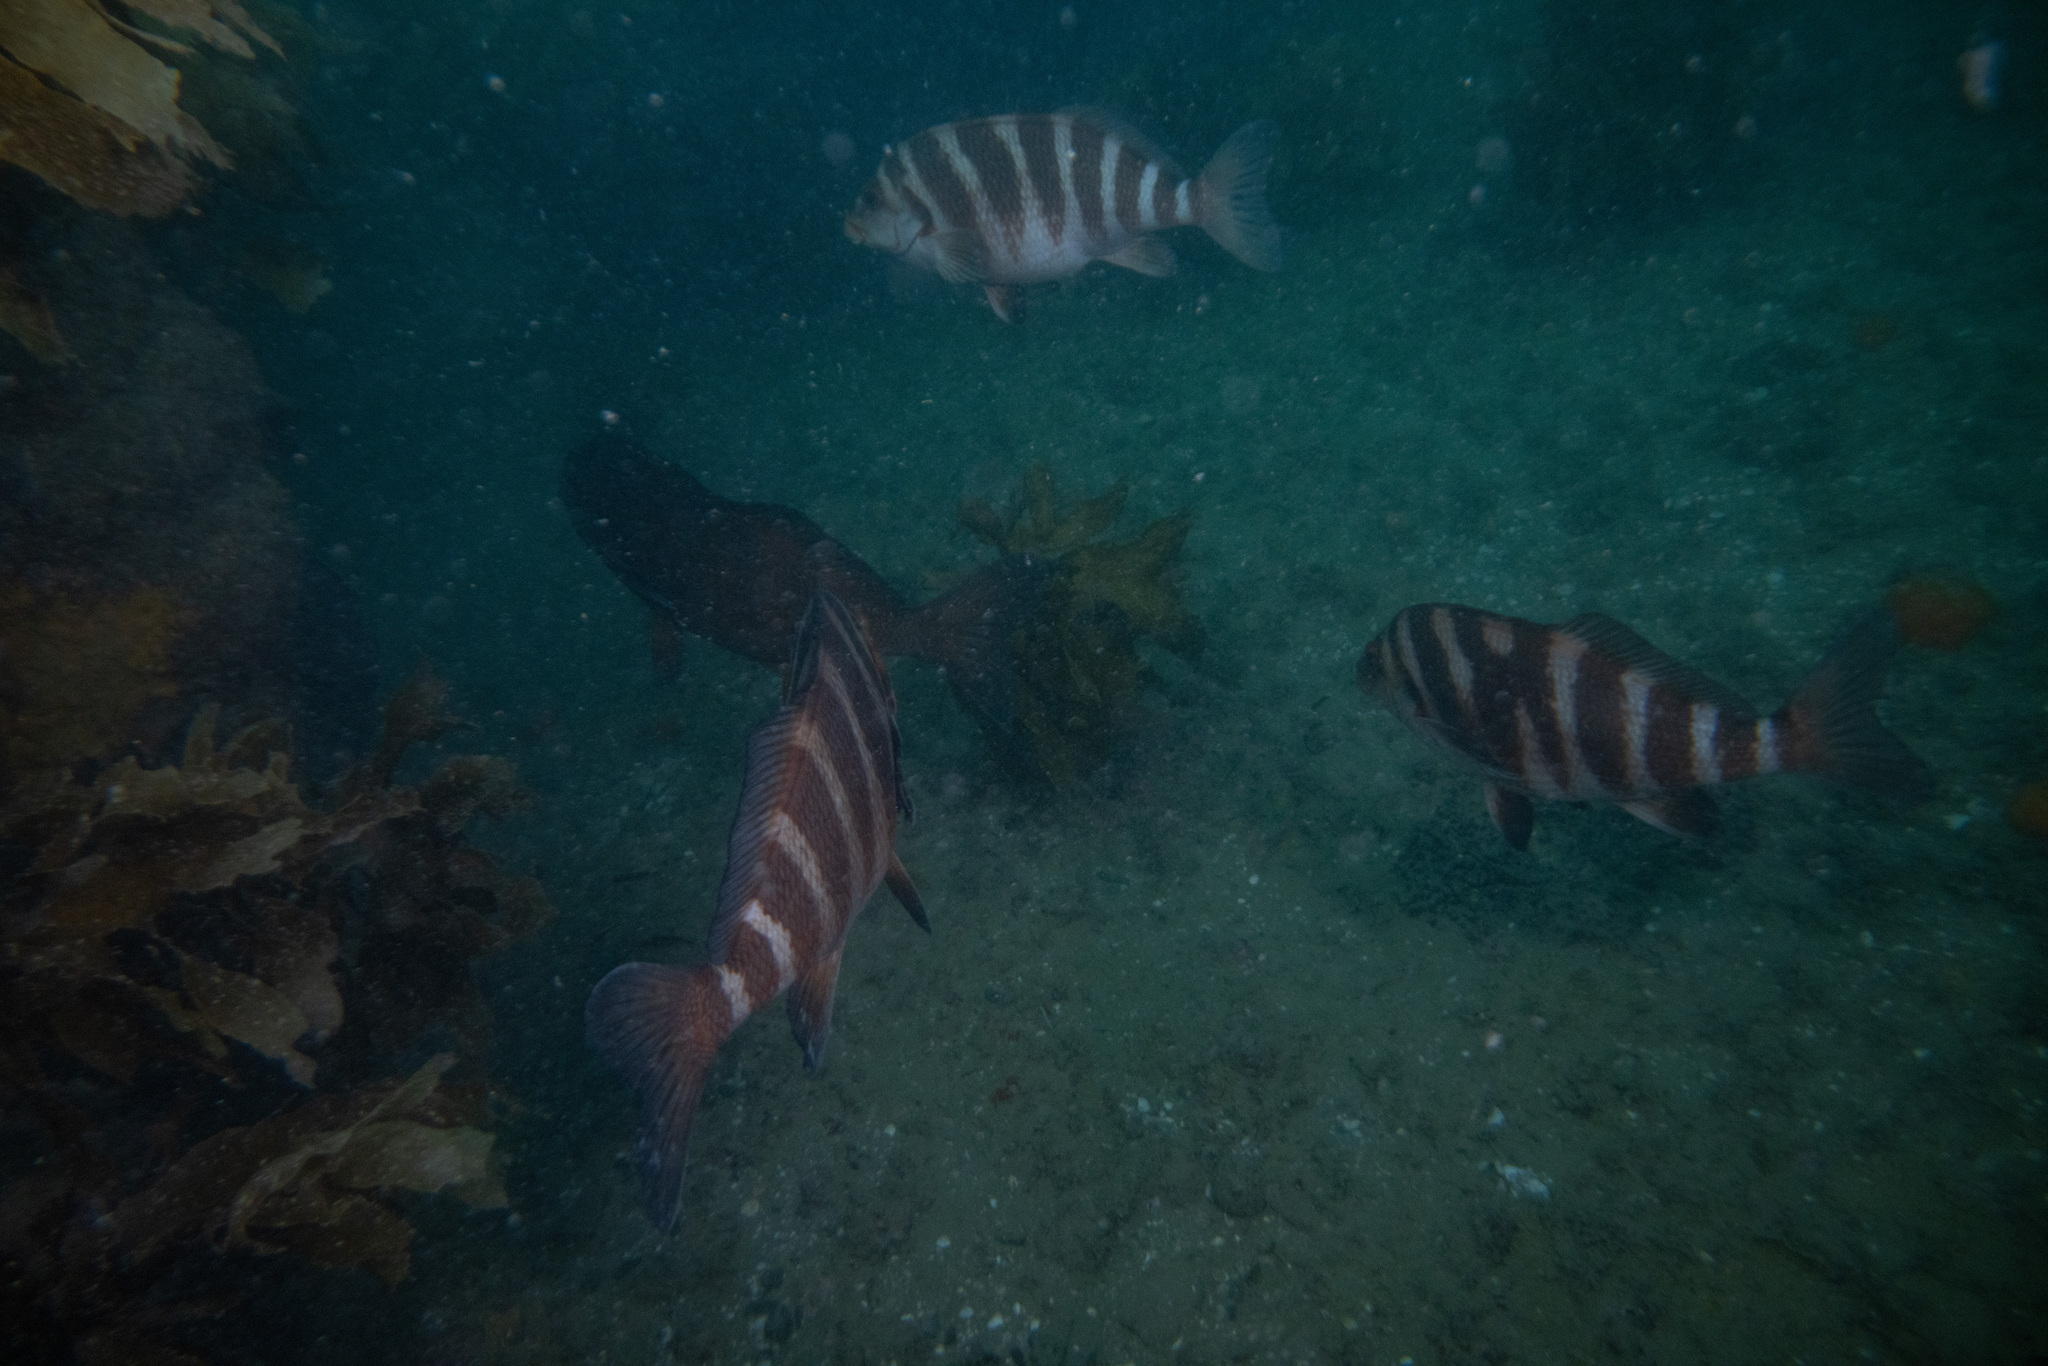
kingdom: Animalia
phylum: Chordata
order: Perciformes
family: Cheilodactylidae
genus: Cheilodactylus
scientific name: Cheilodactylus spectabilis
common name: Red moki
